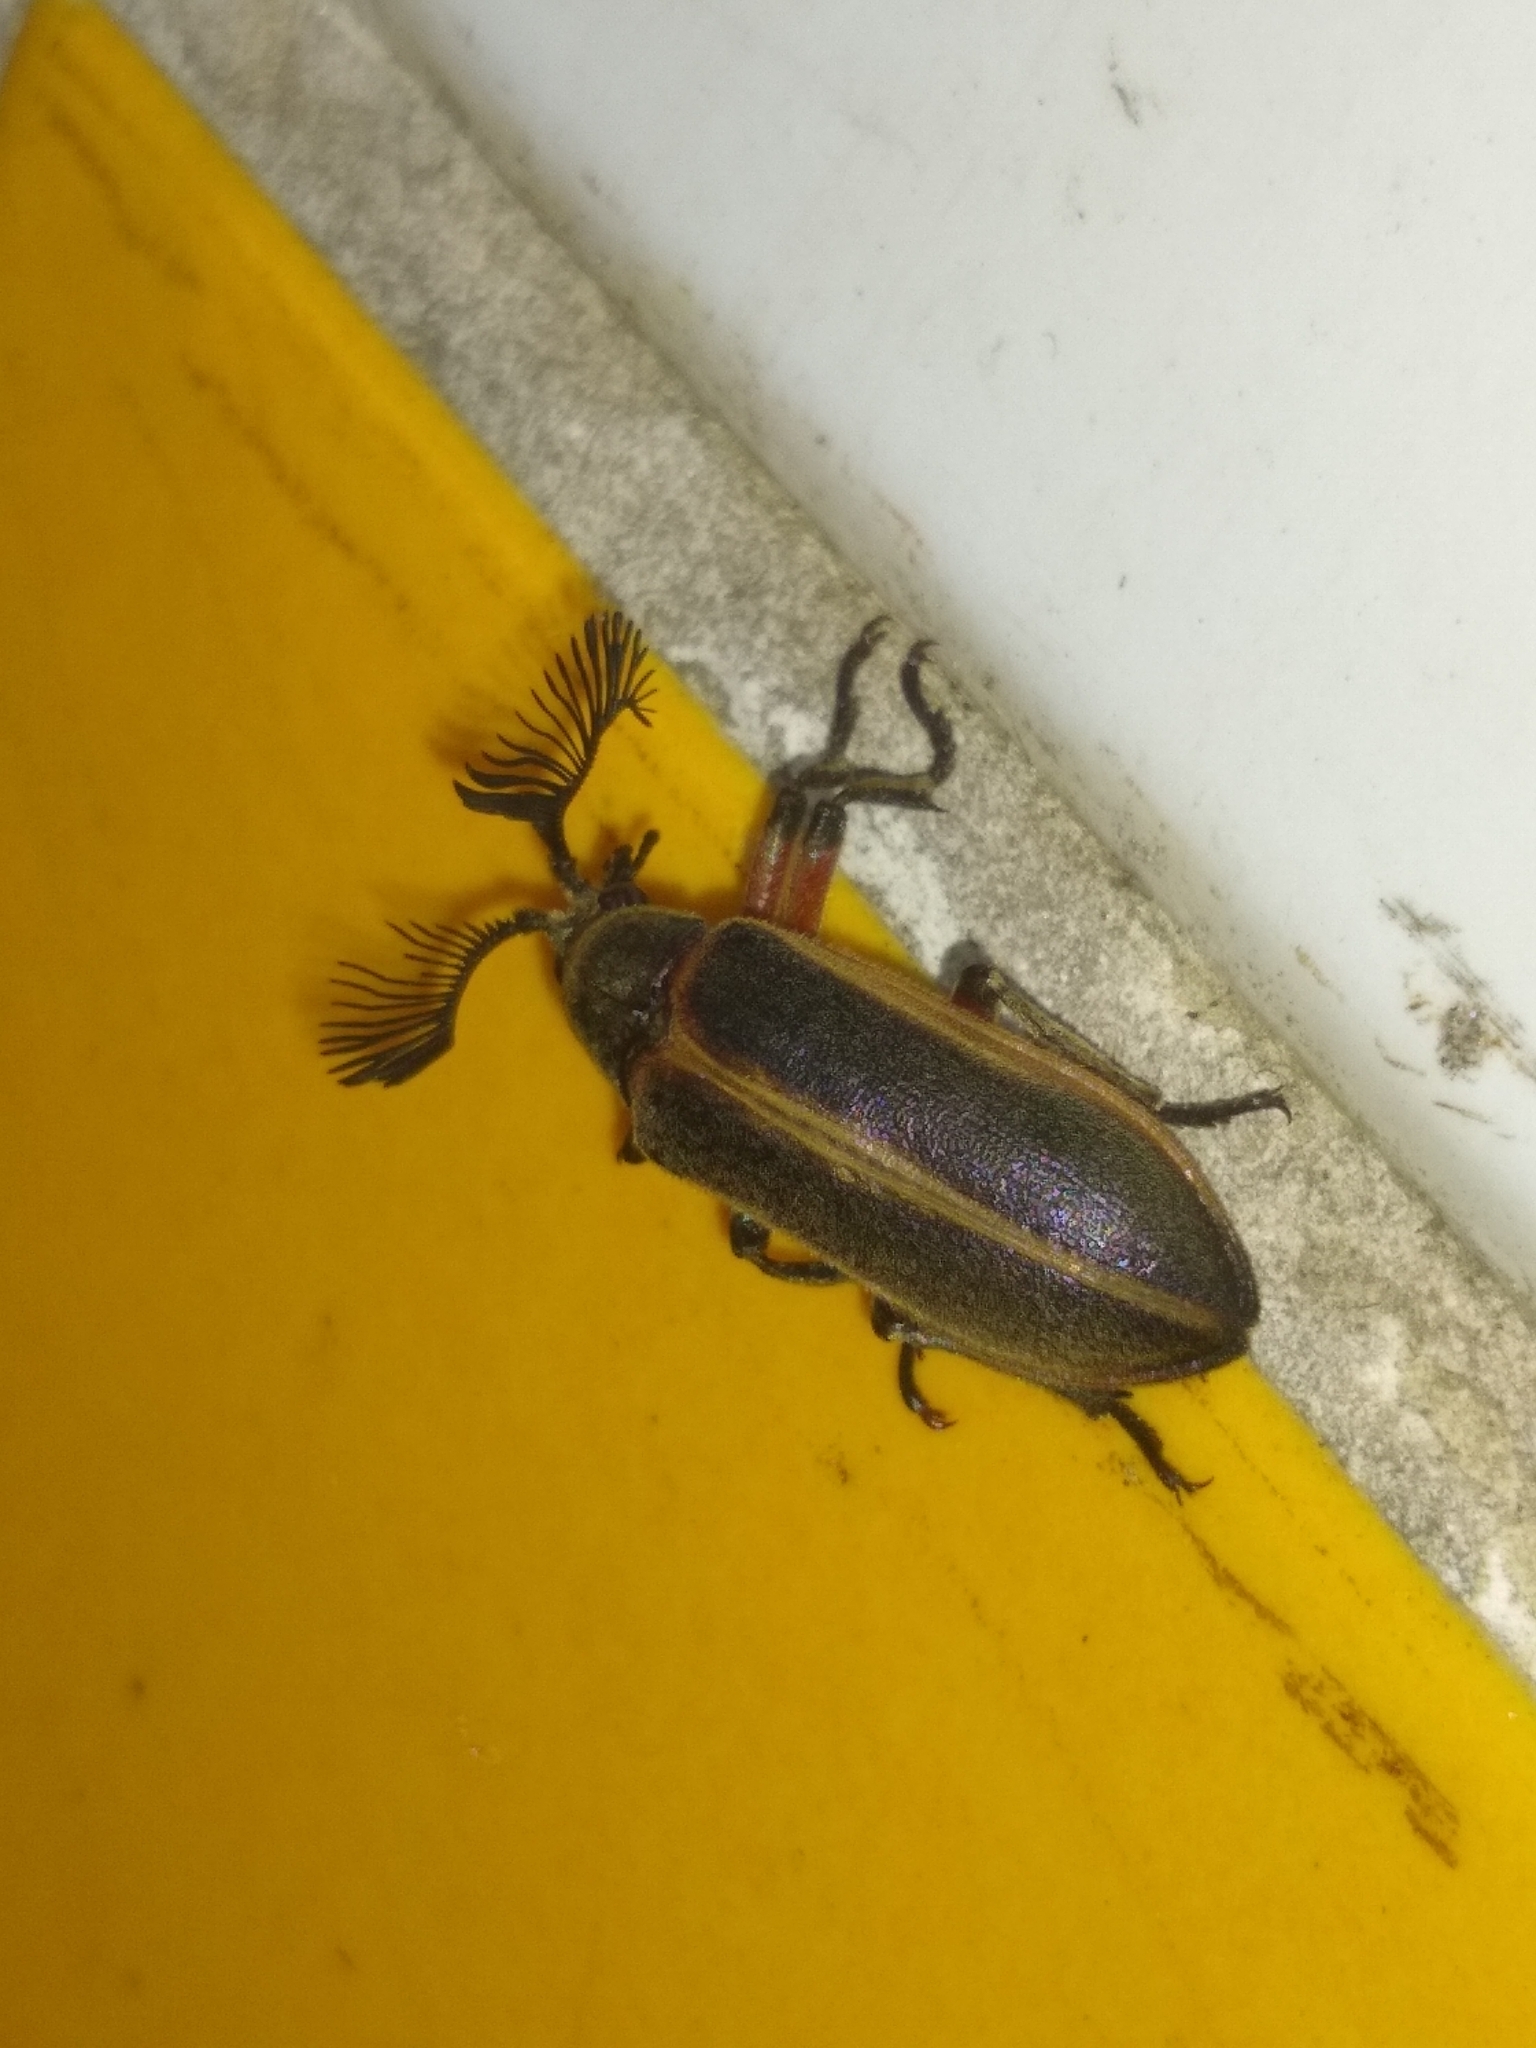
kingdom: Animalia
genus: Polytomus
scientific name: Polytomus
